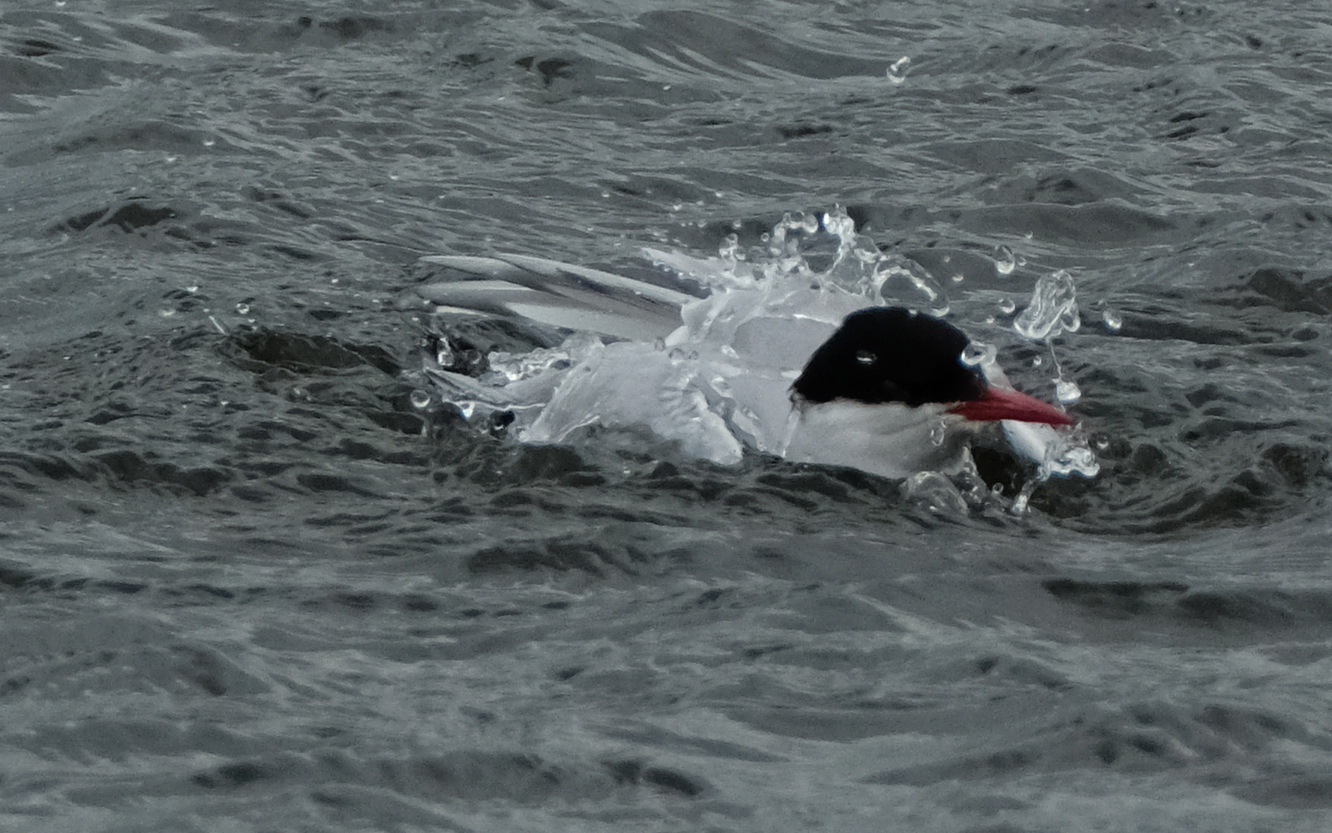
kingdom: Animalia
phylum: Chordata
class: Aves
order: Charadriiformes
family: Laridae
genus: Sterna
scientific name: Sterna paradisaea
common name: Arctic tern
